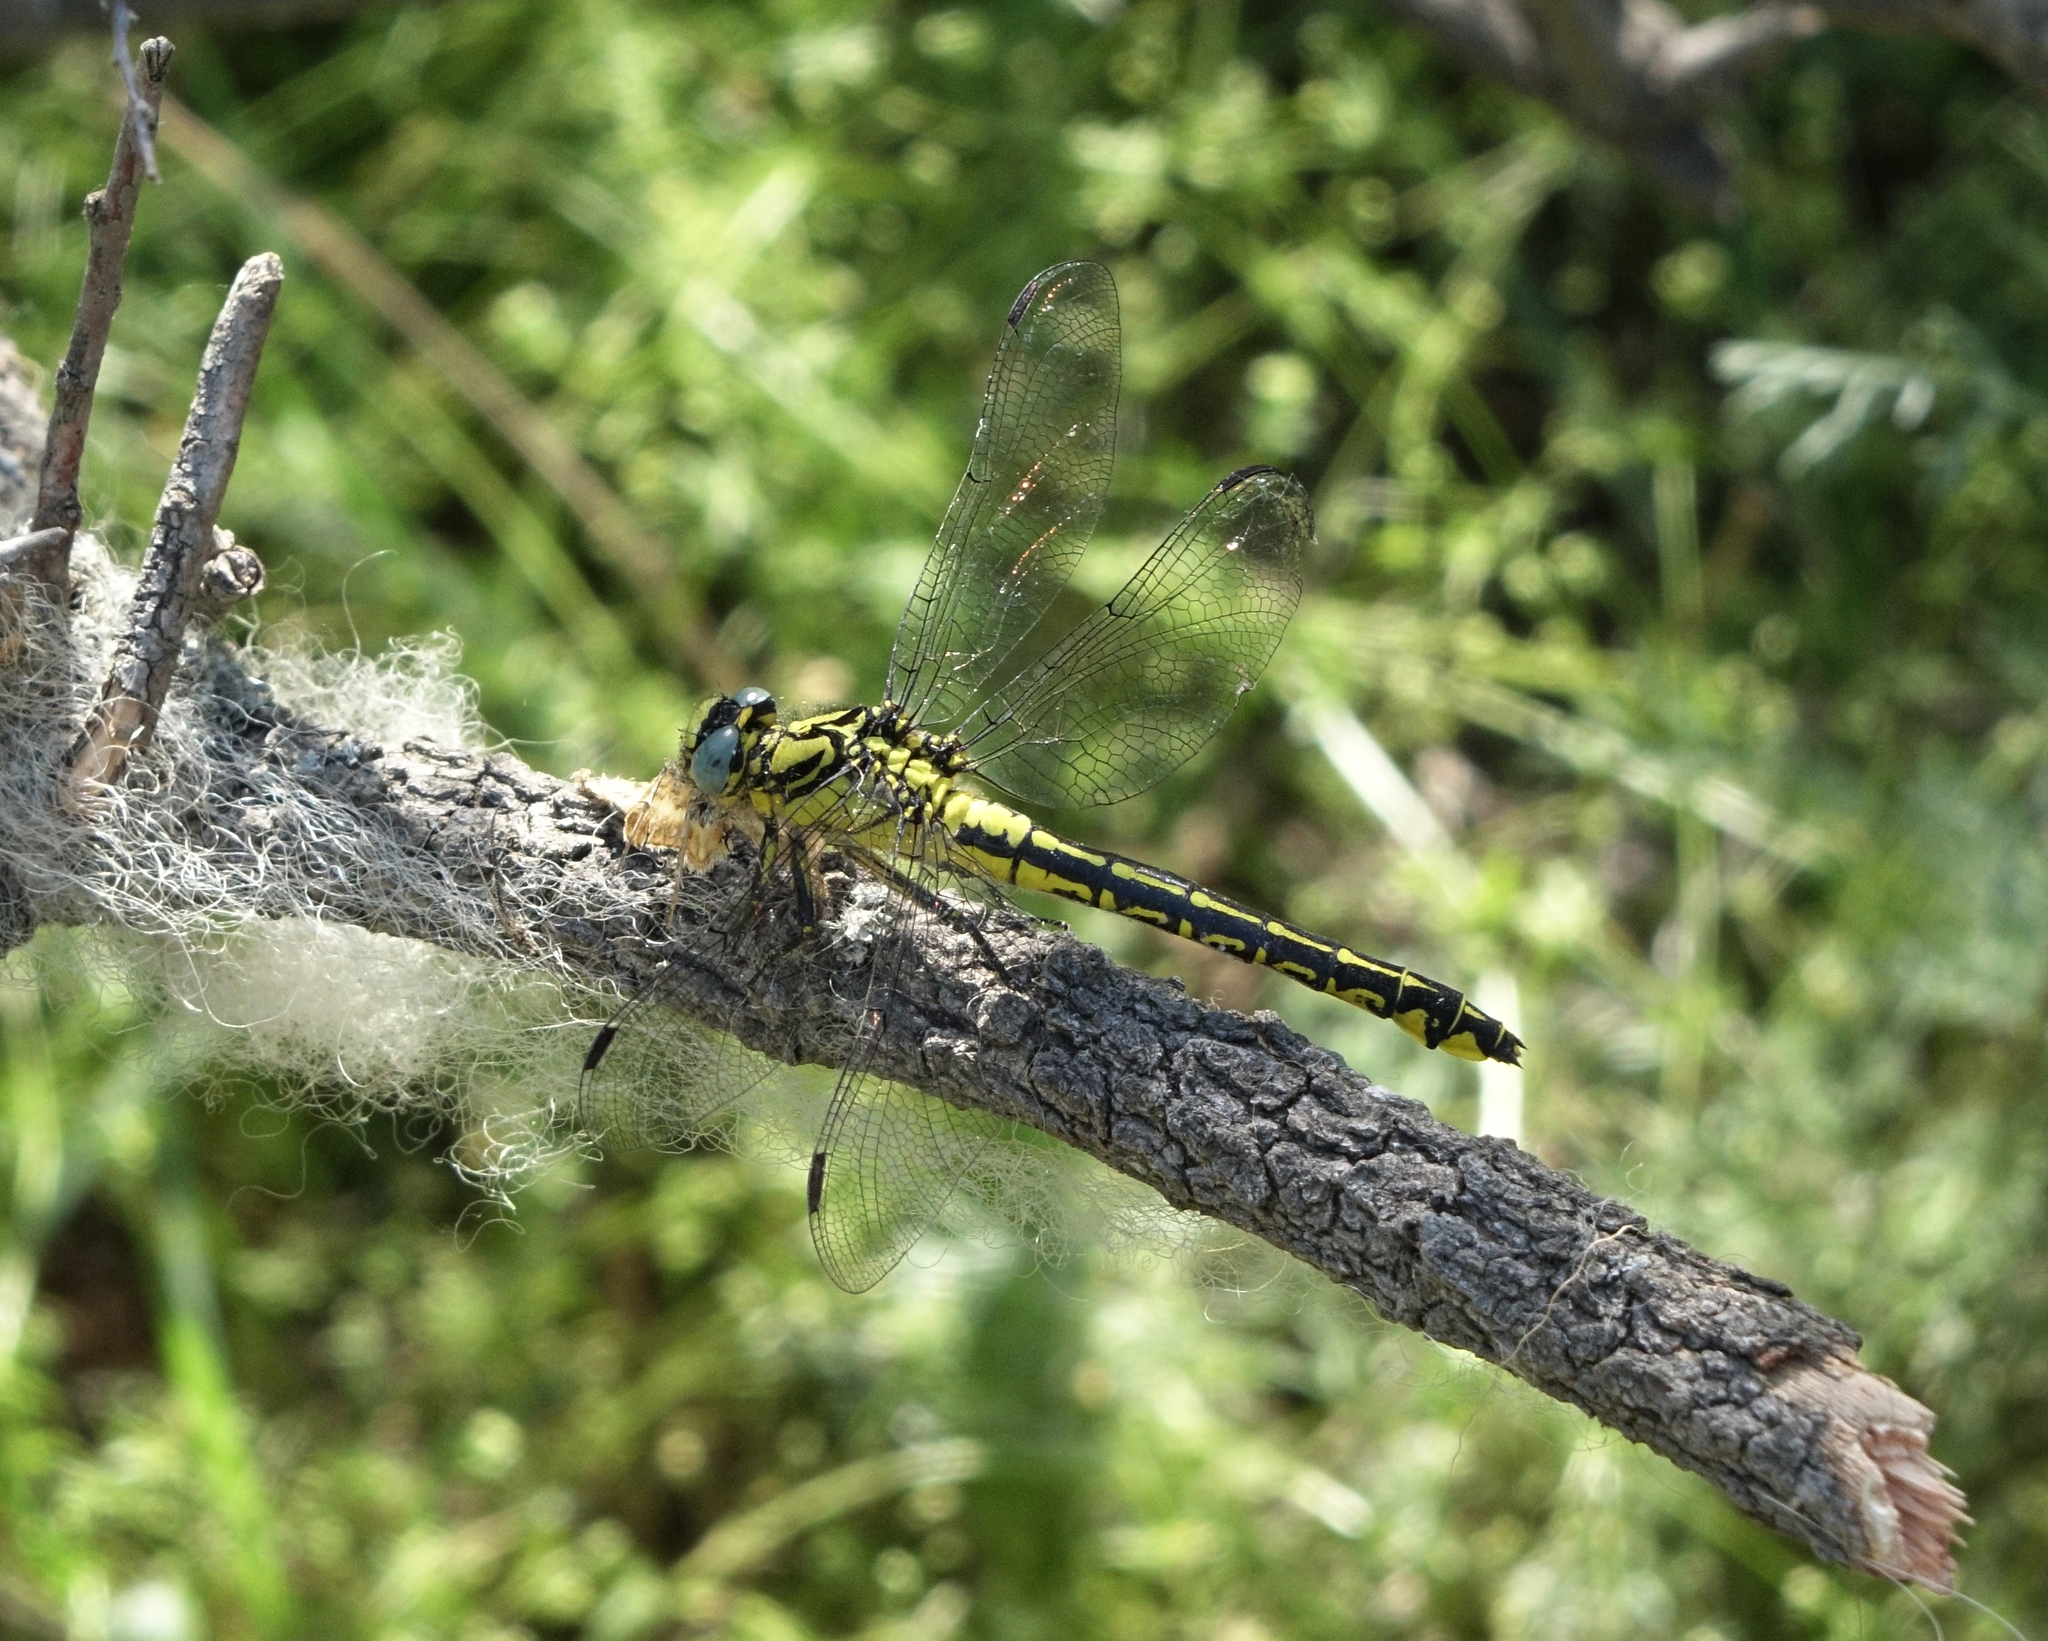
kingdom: Animalia
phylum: Arthropoda
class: Insecta
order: Odonata
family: Gomphidae
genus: Gomphus
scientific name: Gomphus schneiderii
